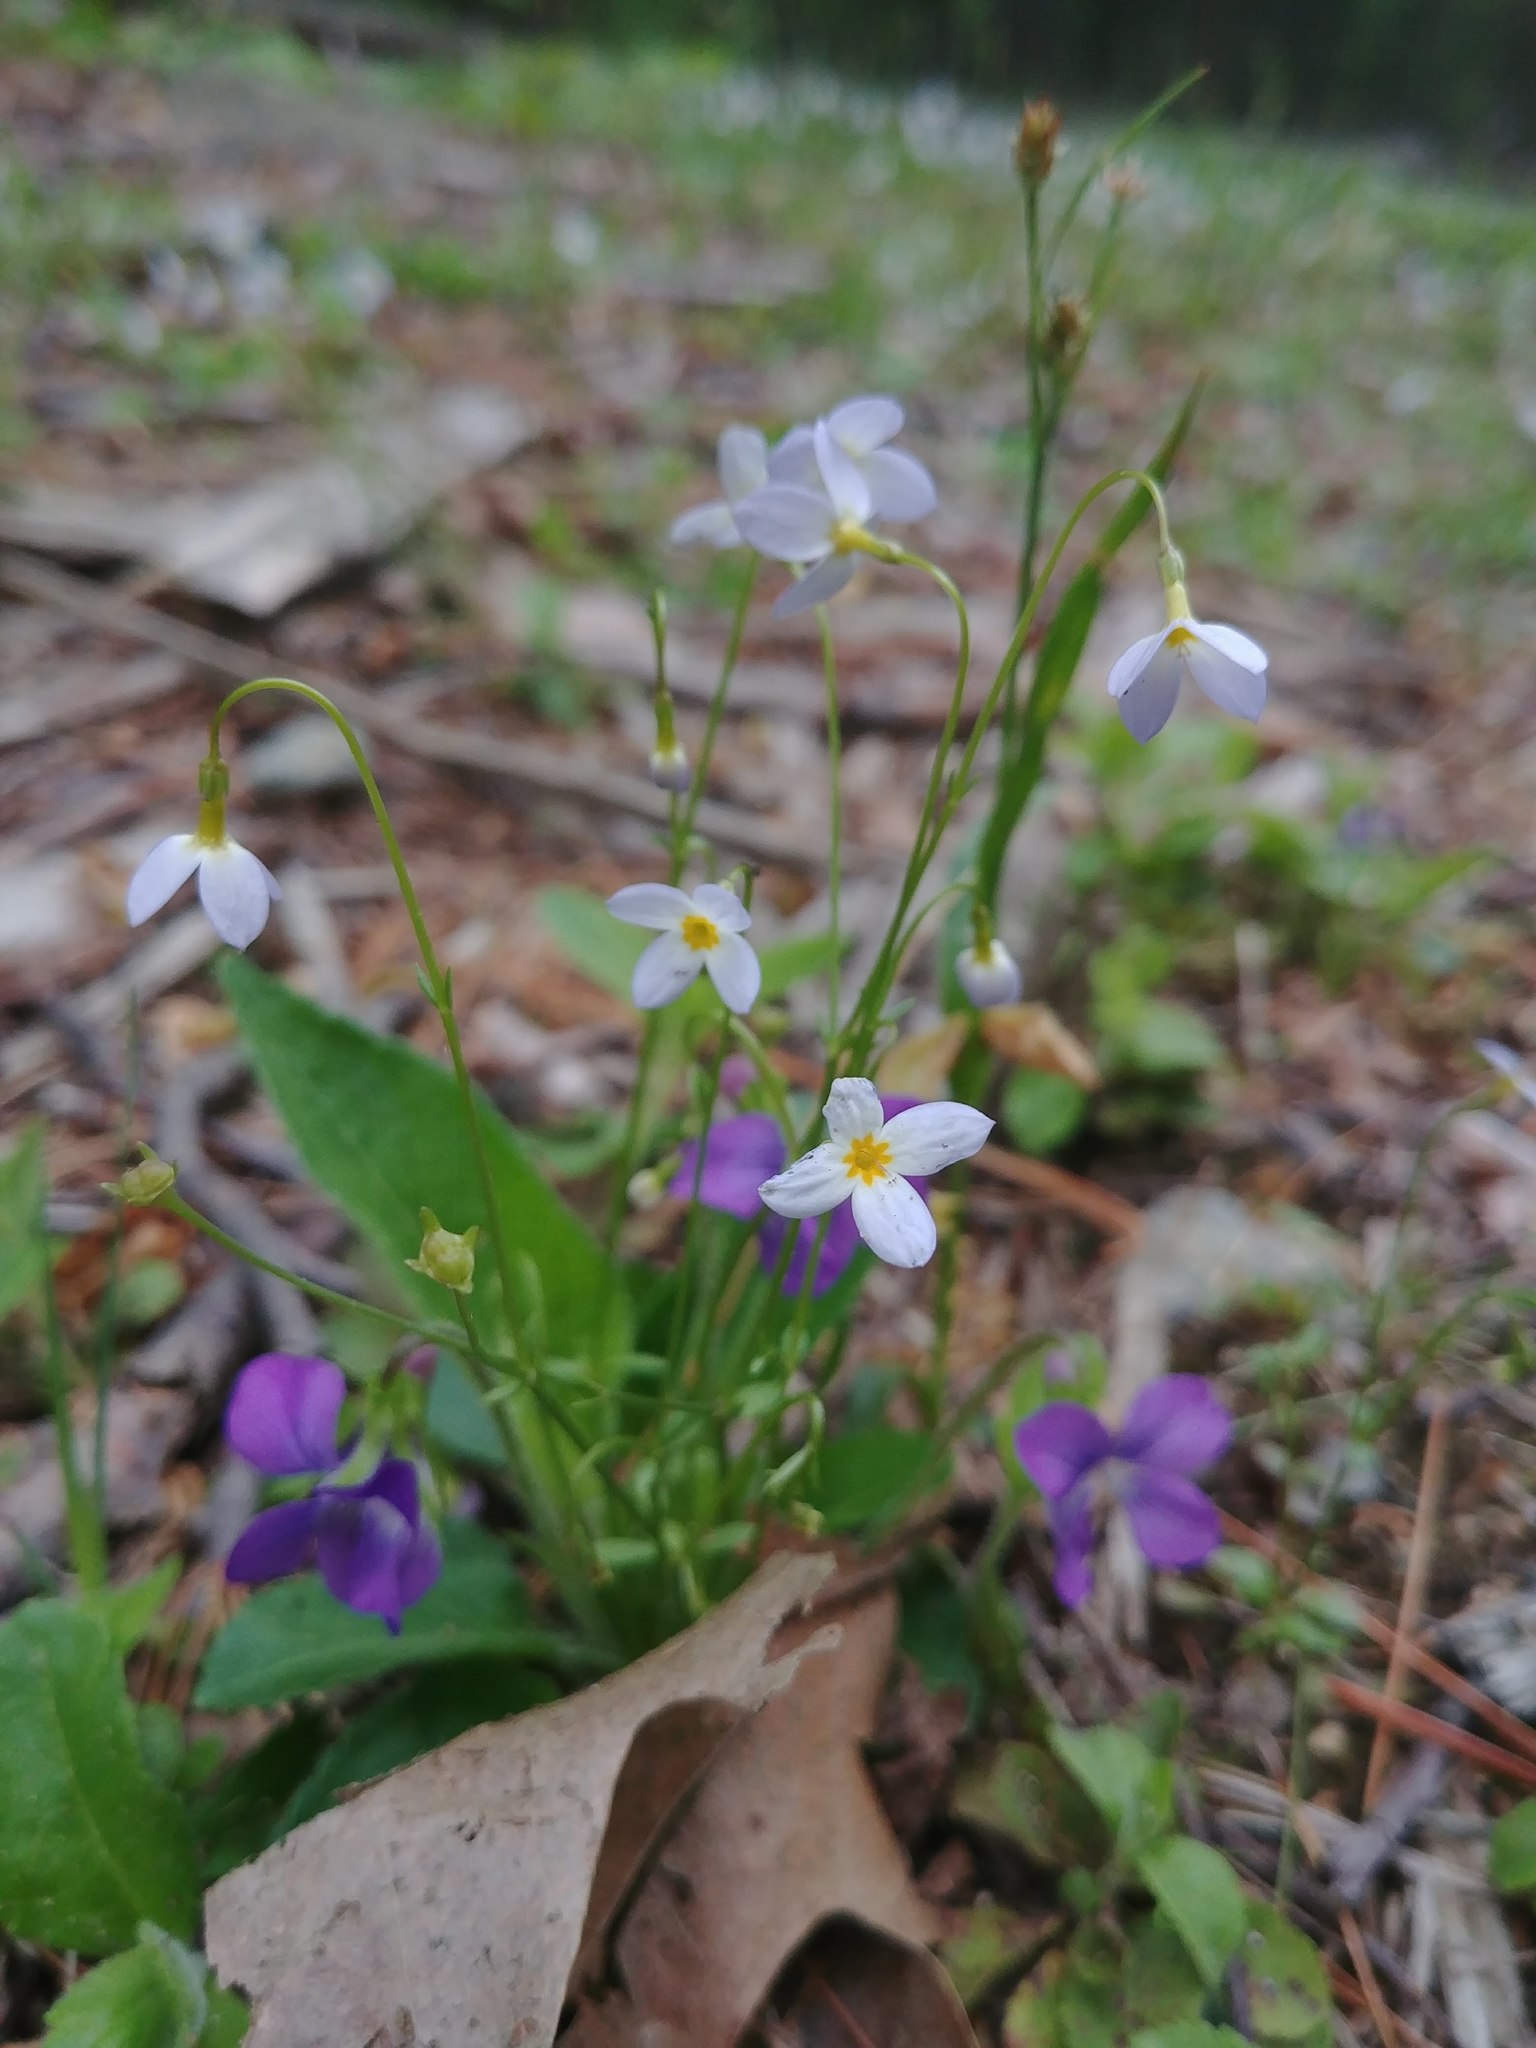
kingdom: Plantae
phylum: Tracheophyta
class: Magnoliopsida
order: Gentianales
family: Rubiaceae
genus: Houstonia
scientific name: Houstonia caerulea
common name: Bluets
